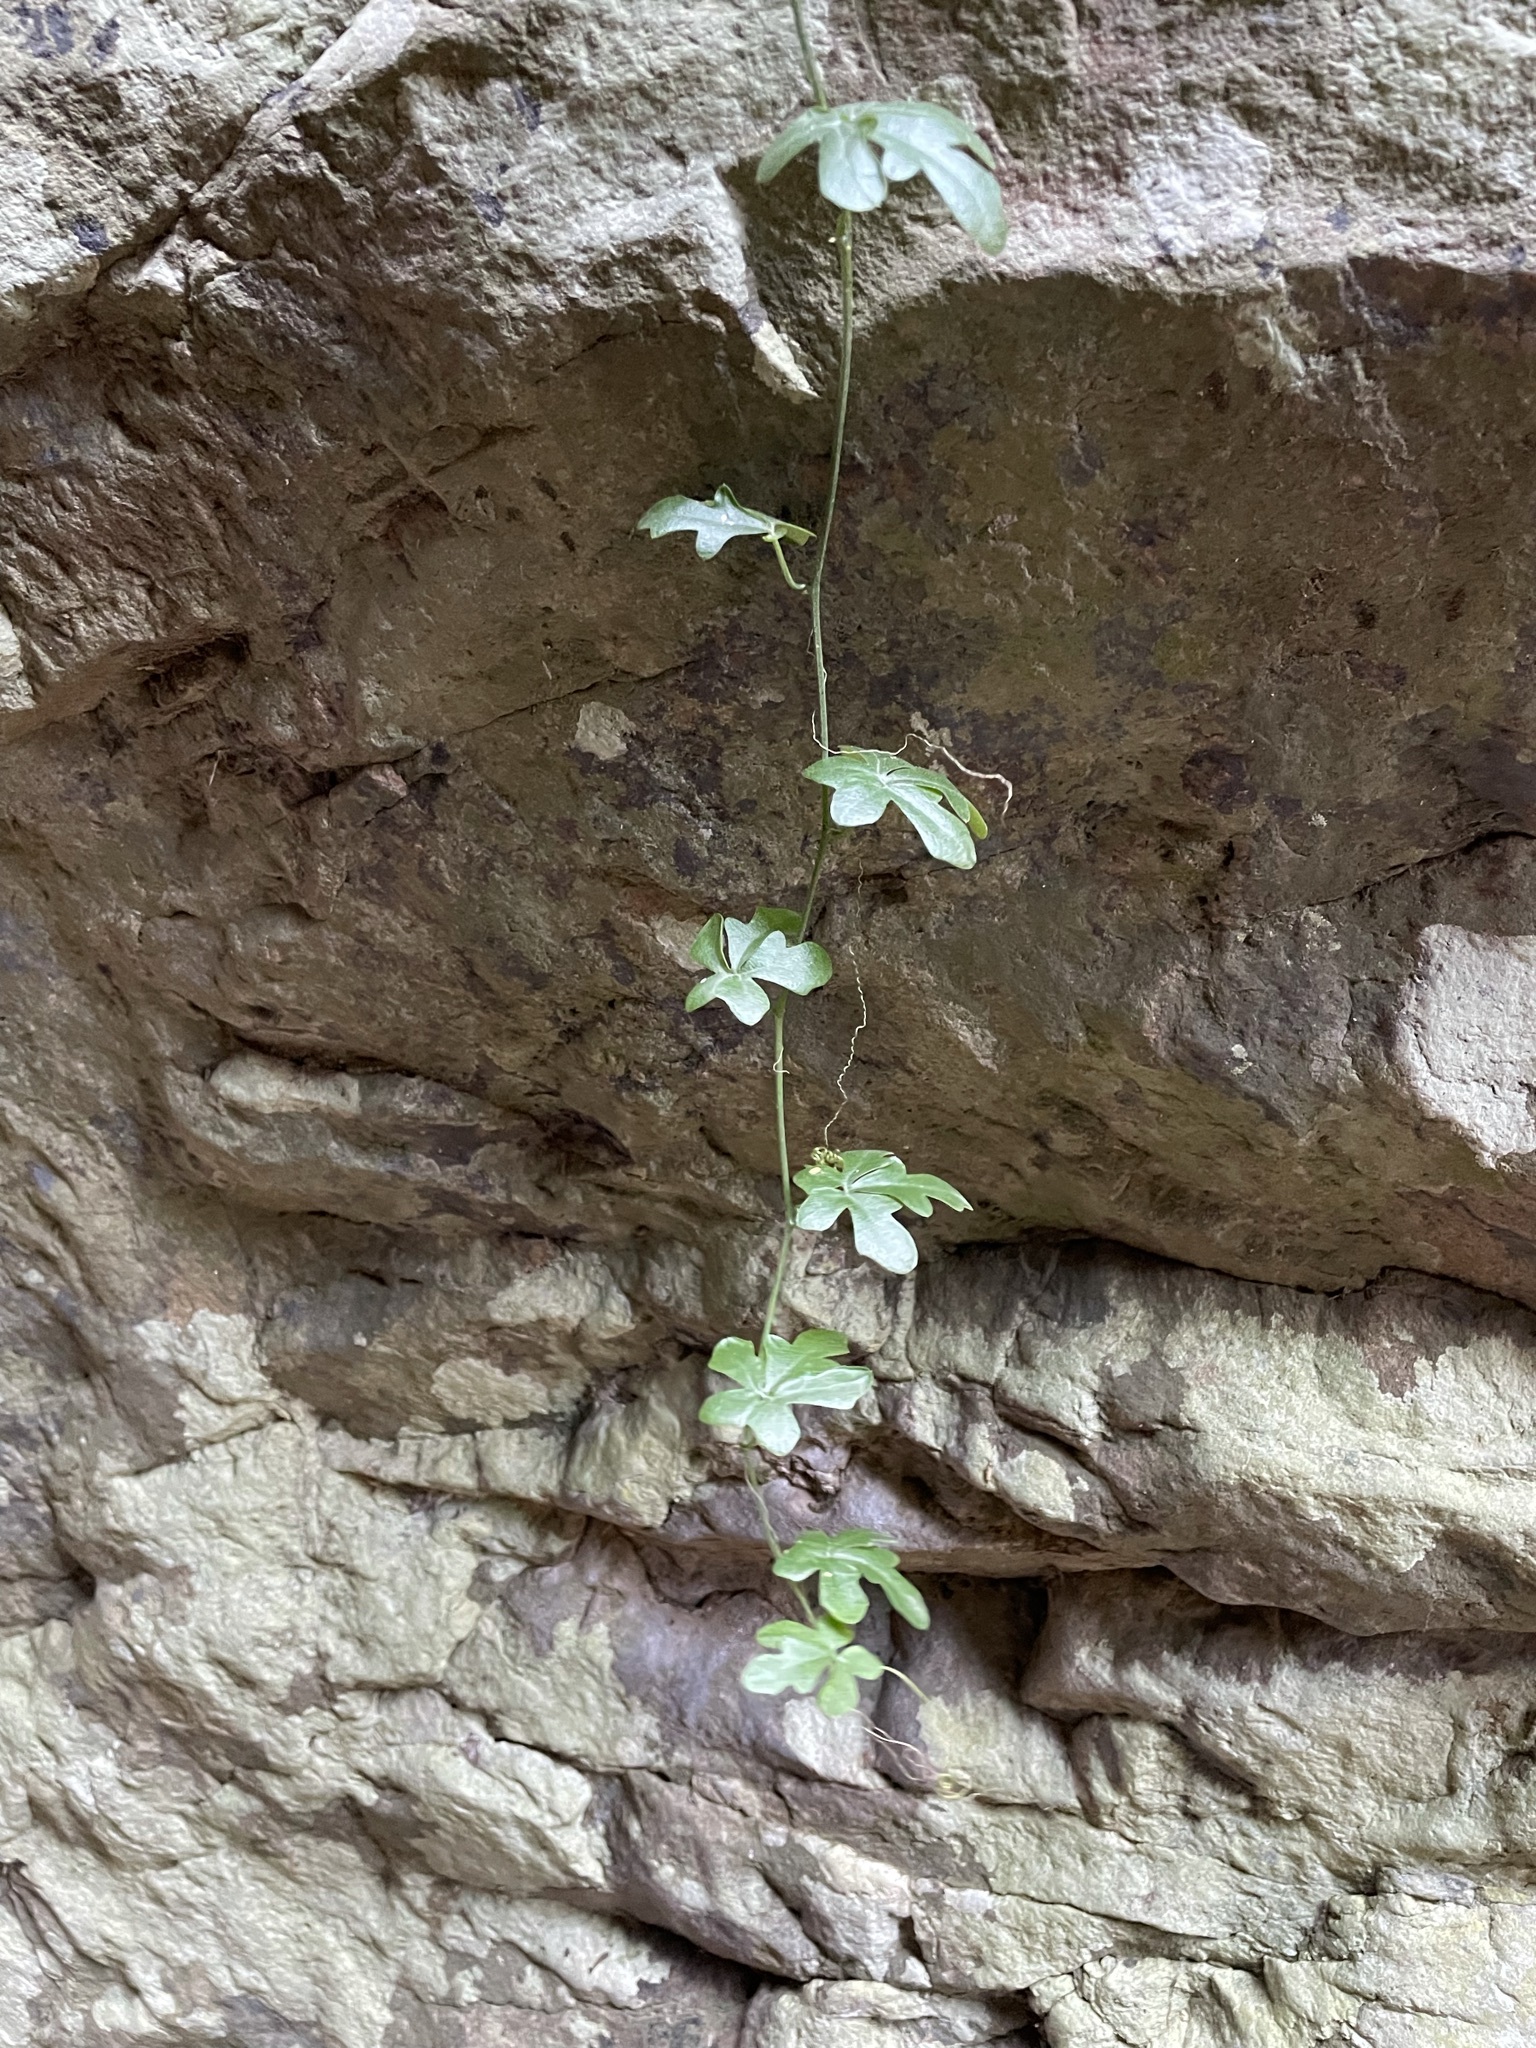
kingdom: Plantae
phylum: Tracheophyta
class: Magnoliopsida
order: Cucurbitales
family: Cucurbitaceae
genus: Kedrostis
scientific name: Kedrostis nana
